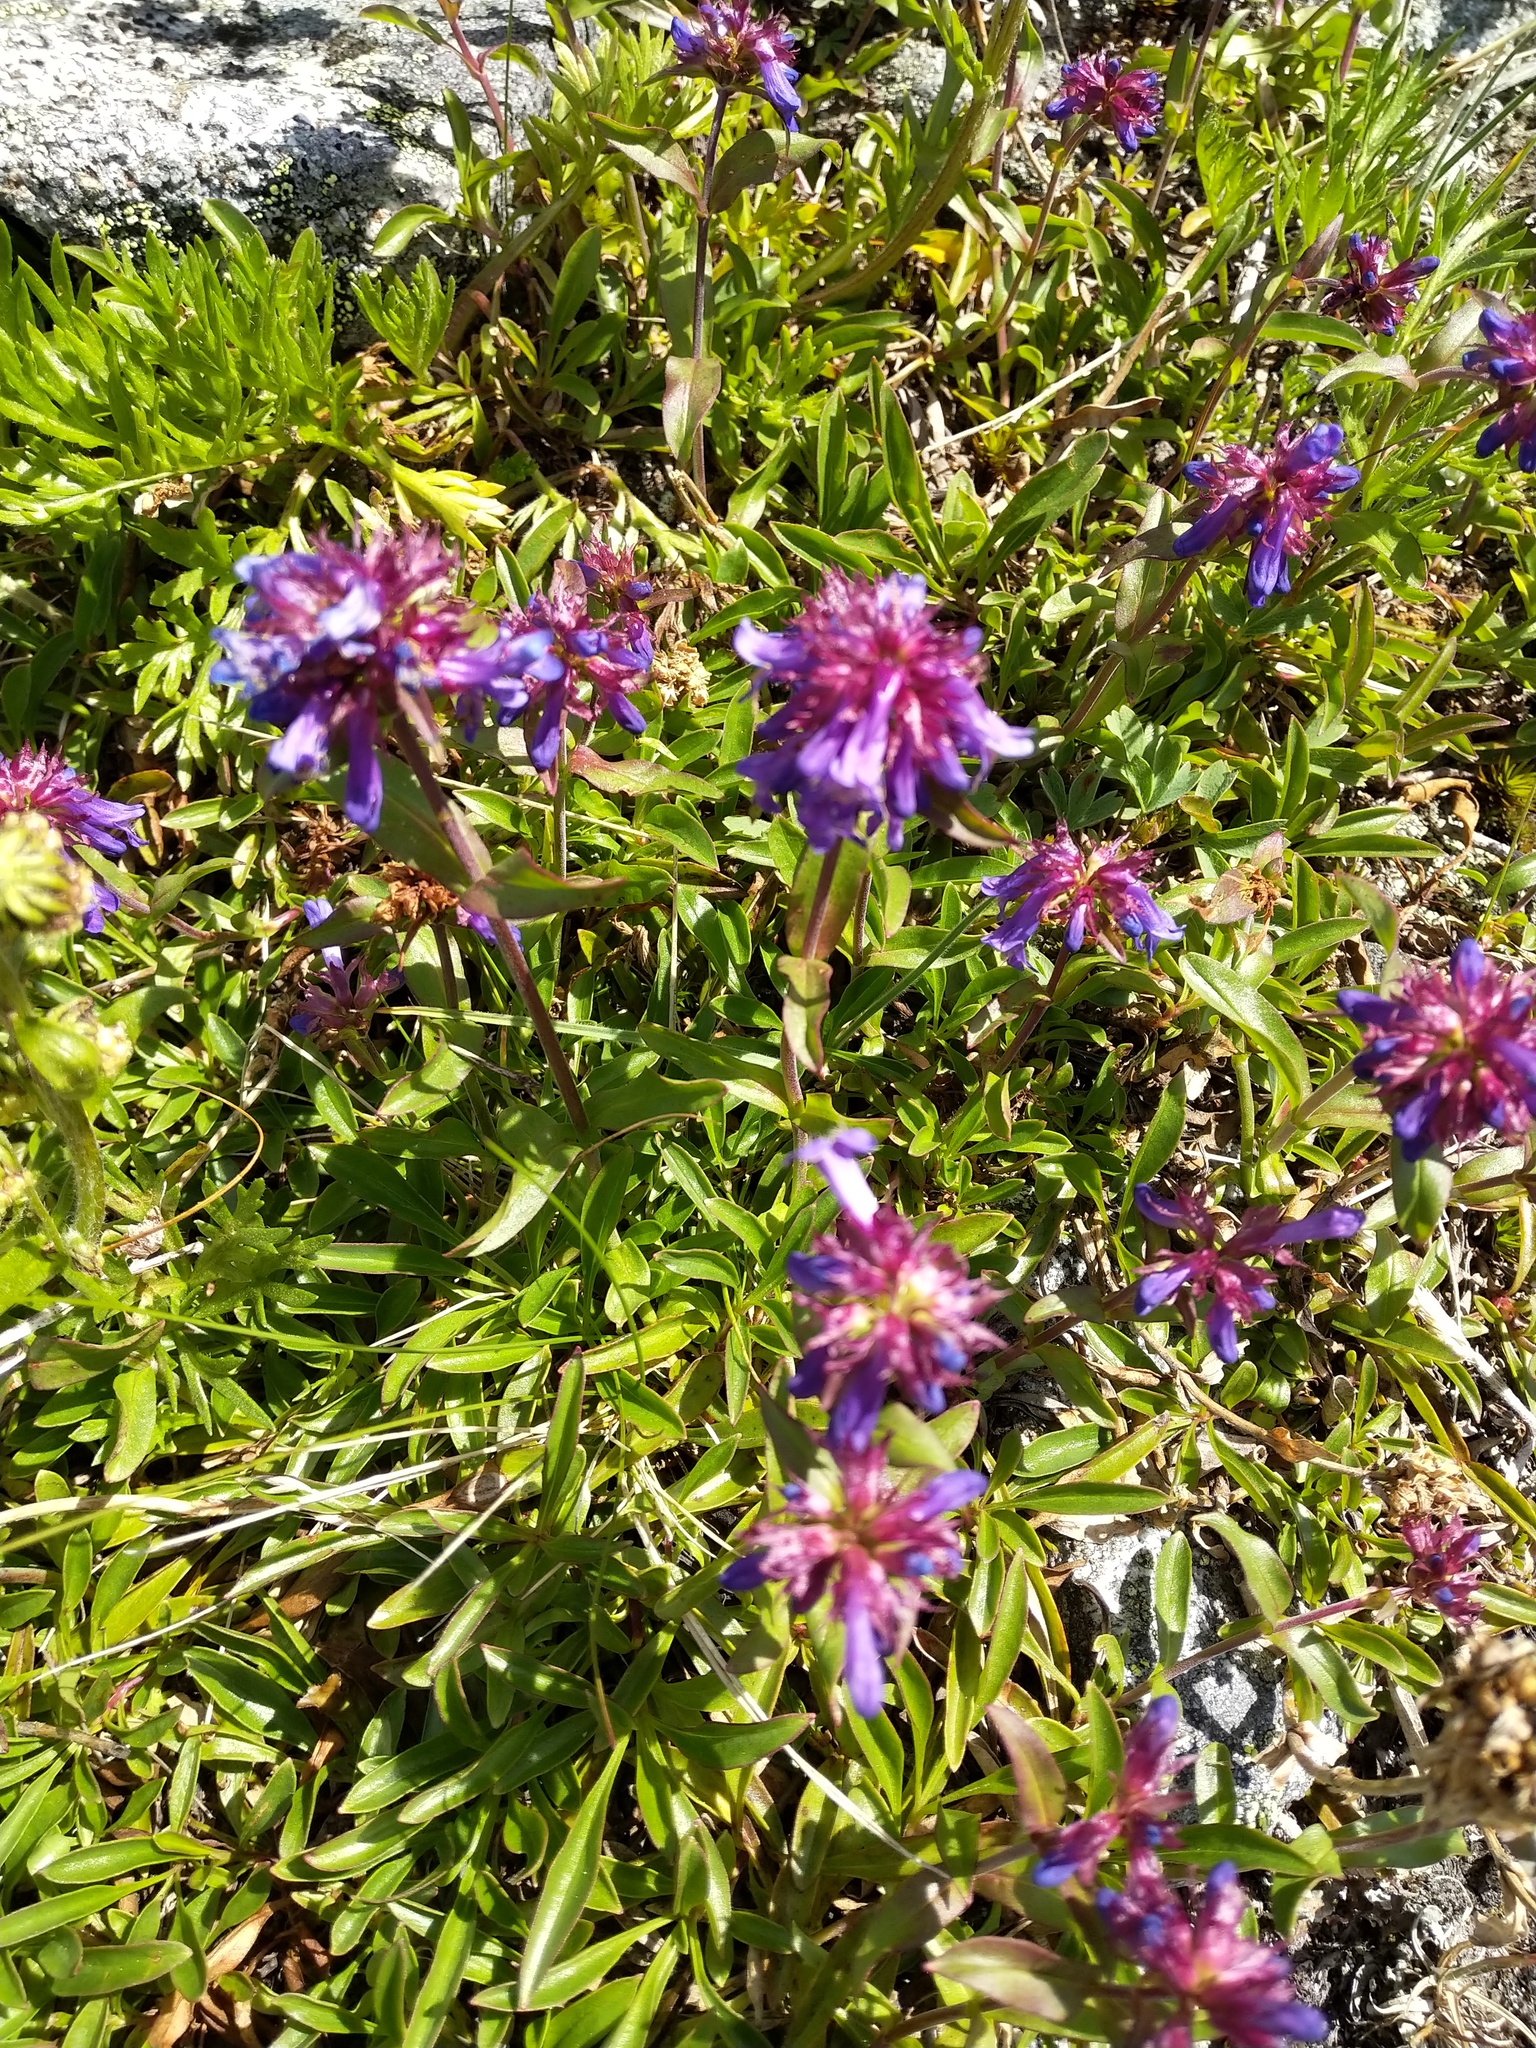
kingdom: Plantae
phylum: Tracheophyta
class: Magnoliopsida
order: Lamiales
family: Plantaginaceae
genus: Penstemon
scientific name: Penstemon procerus
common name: Small-flower penstemon
